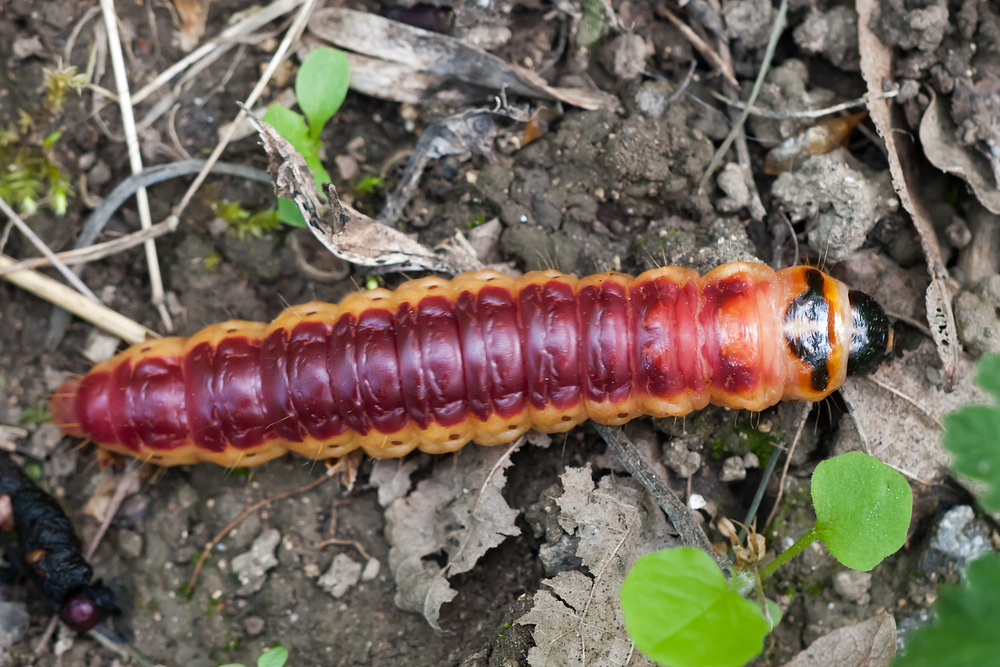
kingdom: Animalia
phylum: Arthropoda
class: Insecta
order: Lepidoptera
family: Cossidae
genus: Cossus
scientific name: Cossus cossus
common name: Goat moth
